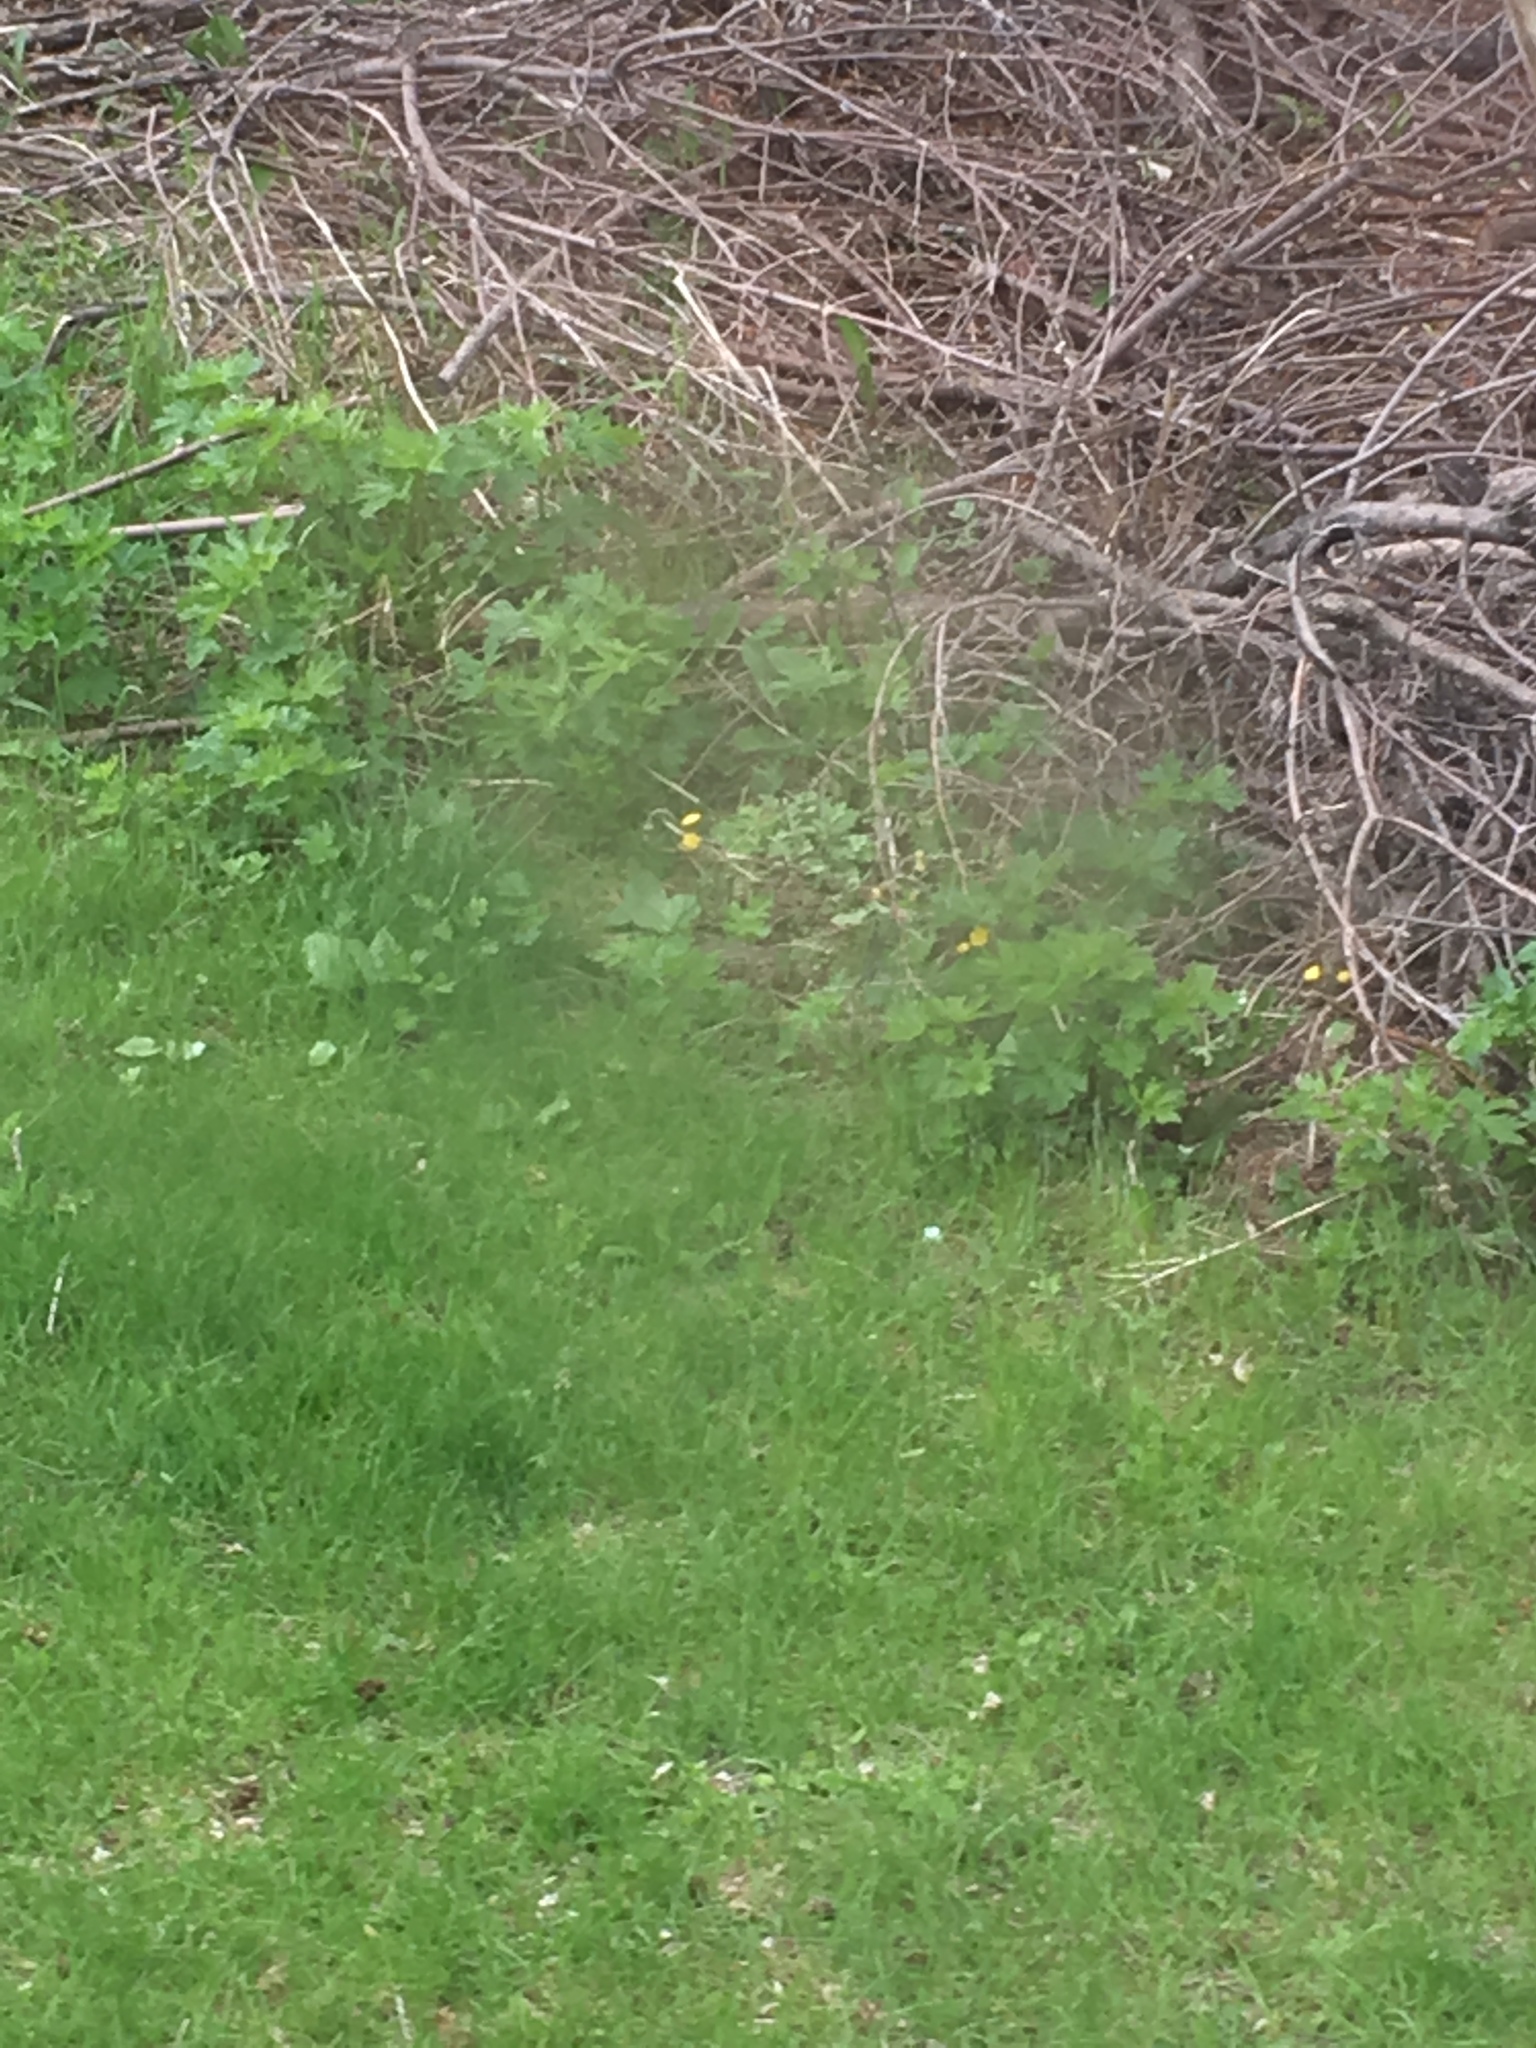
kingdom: Plantae
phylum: Tracheophyta
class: Magnoliopsida
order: Asterales
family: Asteraceae
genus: Tussilago
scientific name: Tussilago farfara
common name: Coltsfoot
